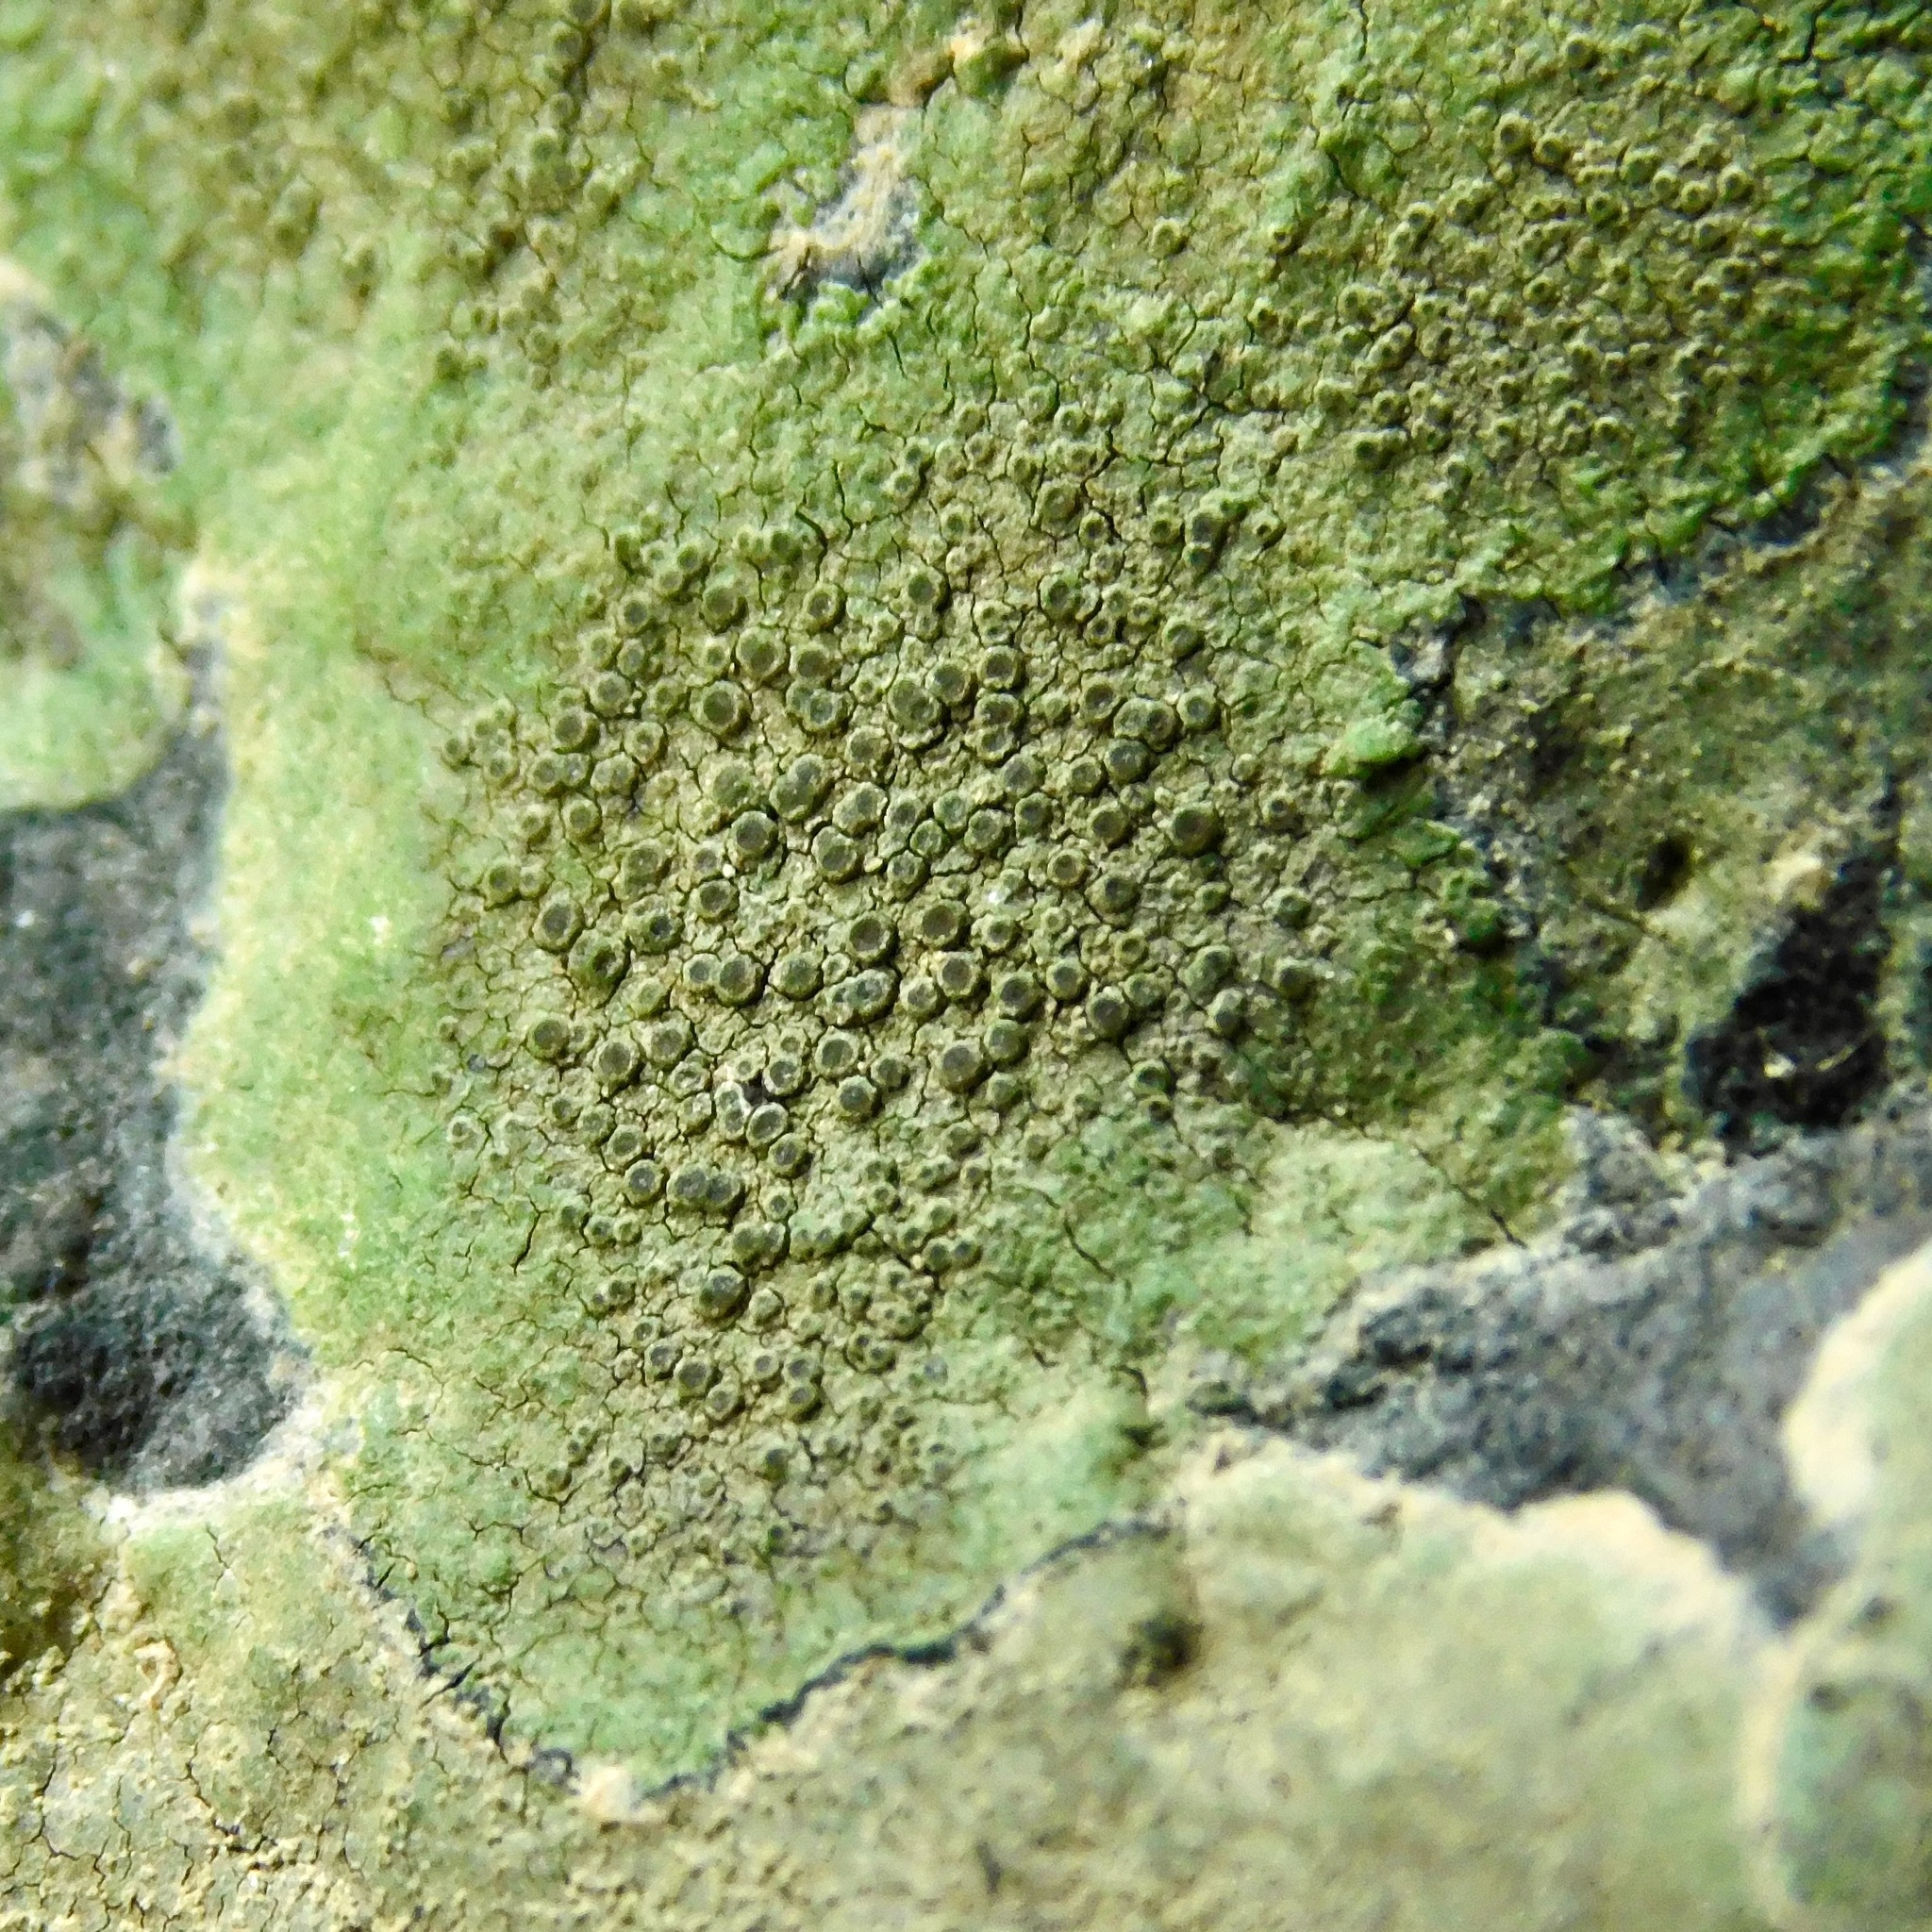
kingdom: Fungi
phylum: Ascomycota
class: Lecanoromycetes
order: Teloschistales
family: Teloschistaceae
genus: Gyalolechia
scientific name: Gyalolechia flavovirescens
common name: Sulphur firedot
